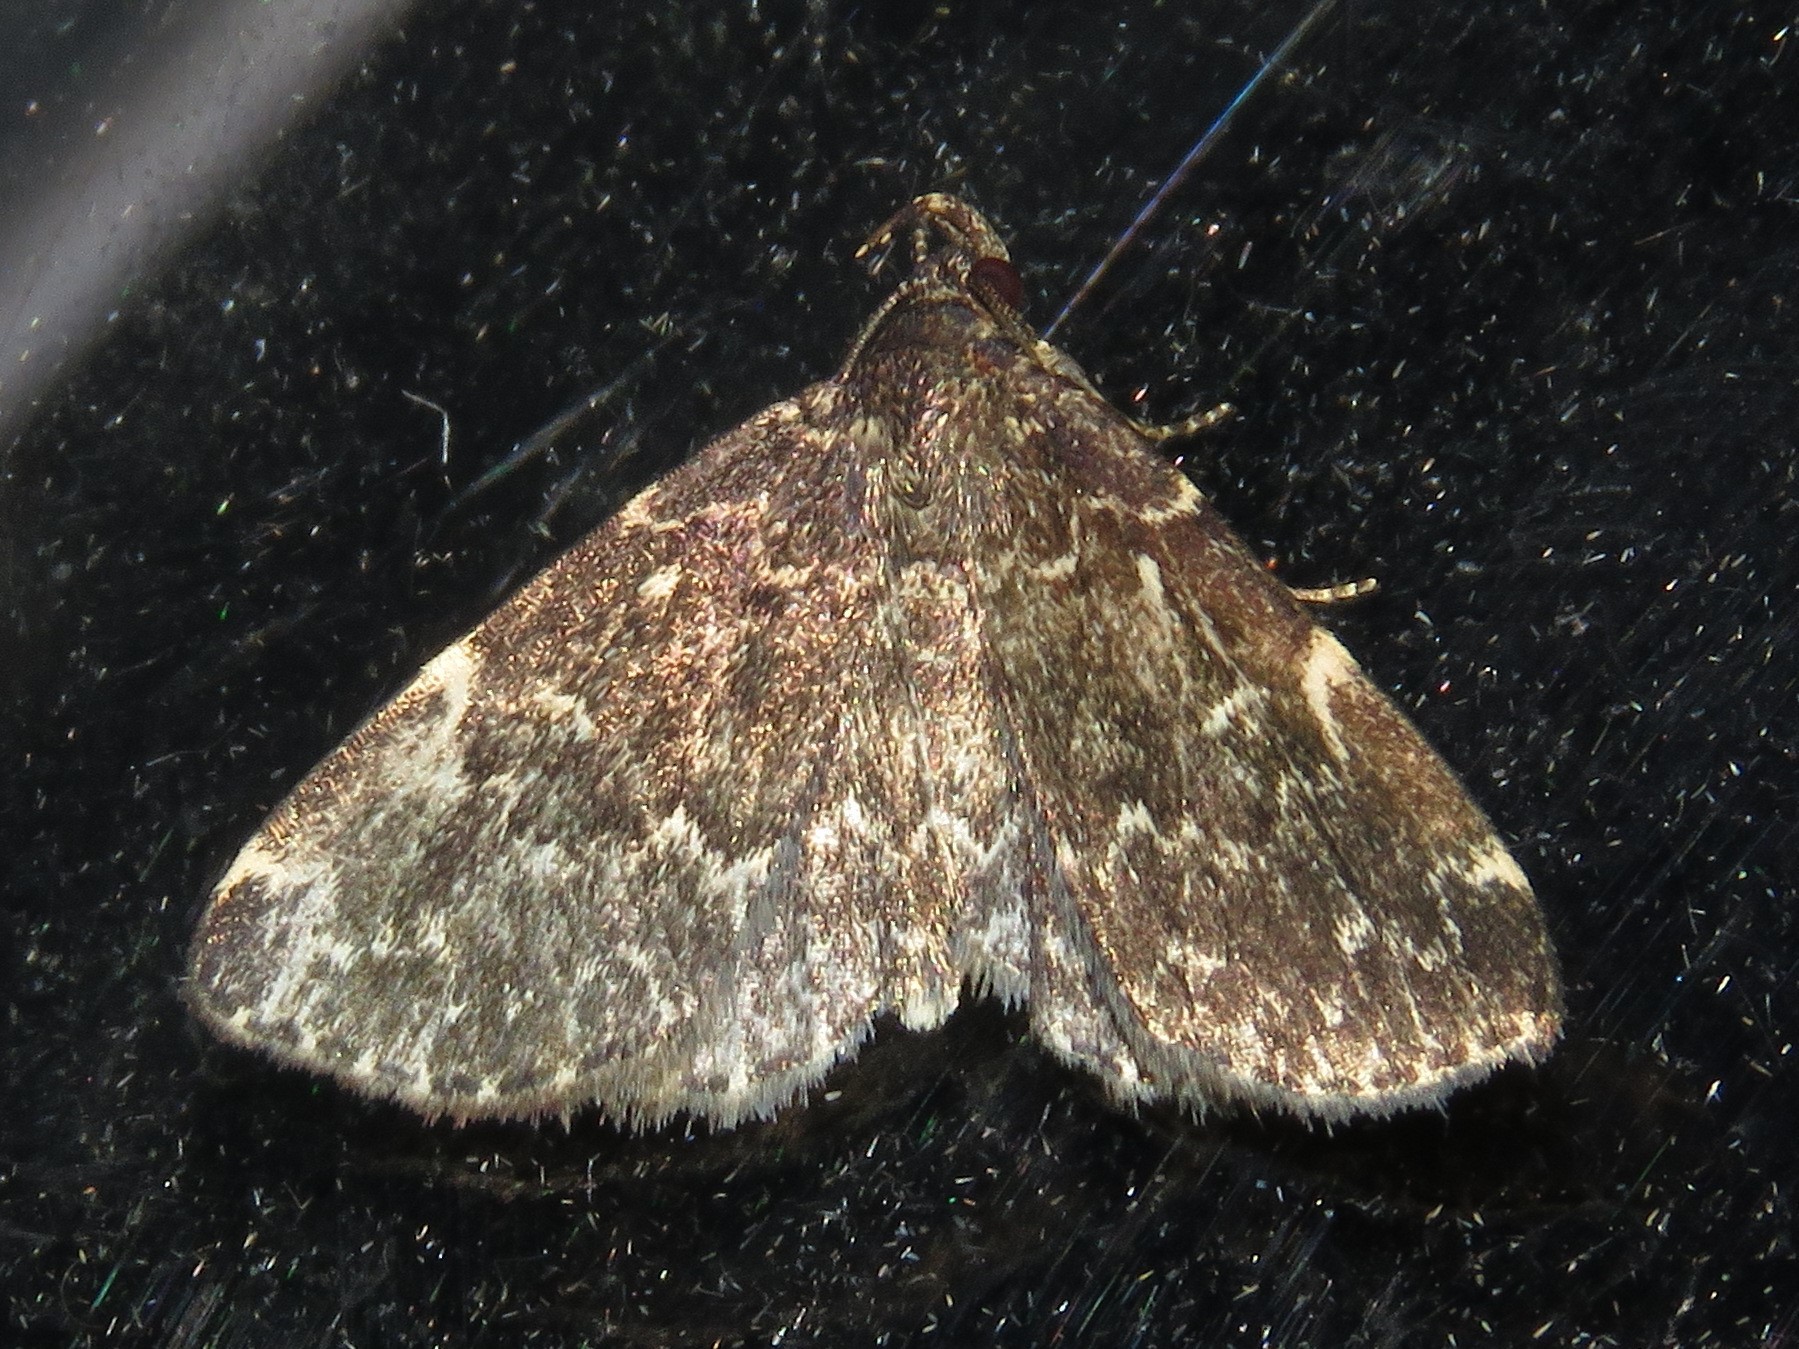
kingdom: Animalia
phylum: Arthropoda
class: Insecta
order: Lepidoptera
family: Erebidae
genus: Idia
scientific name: Idia scobialis
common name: Smoky idia moth
